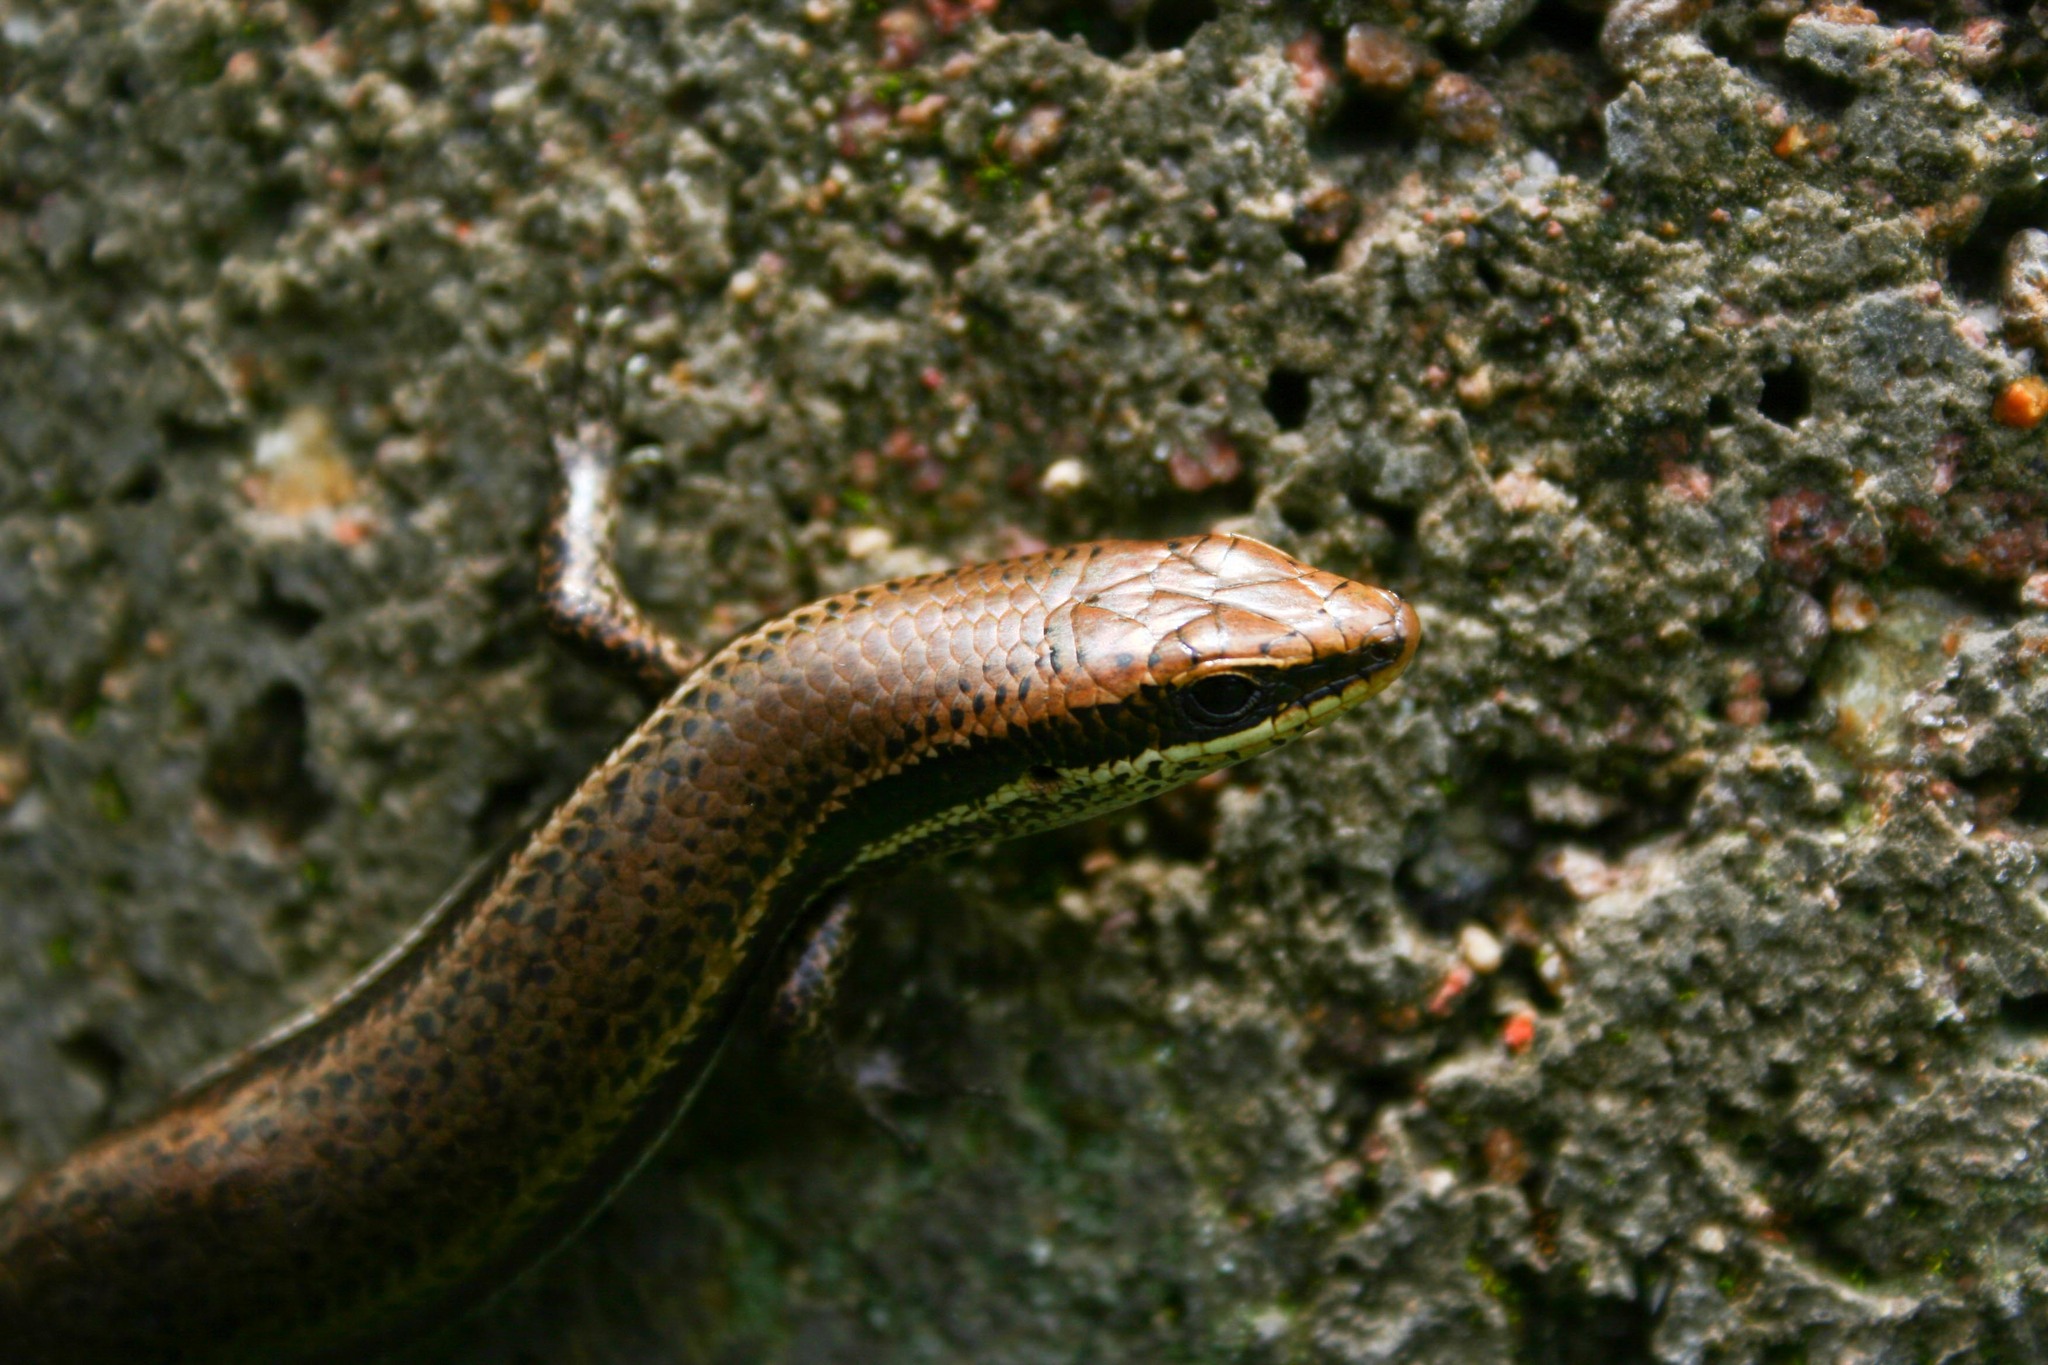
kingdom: Animalia
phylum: Chordata
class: Squamata
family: Scincidae
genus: Marisora
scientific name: Marisora brachypoda
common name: Western middle america skink
